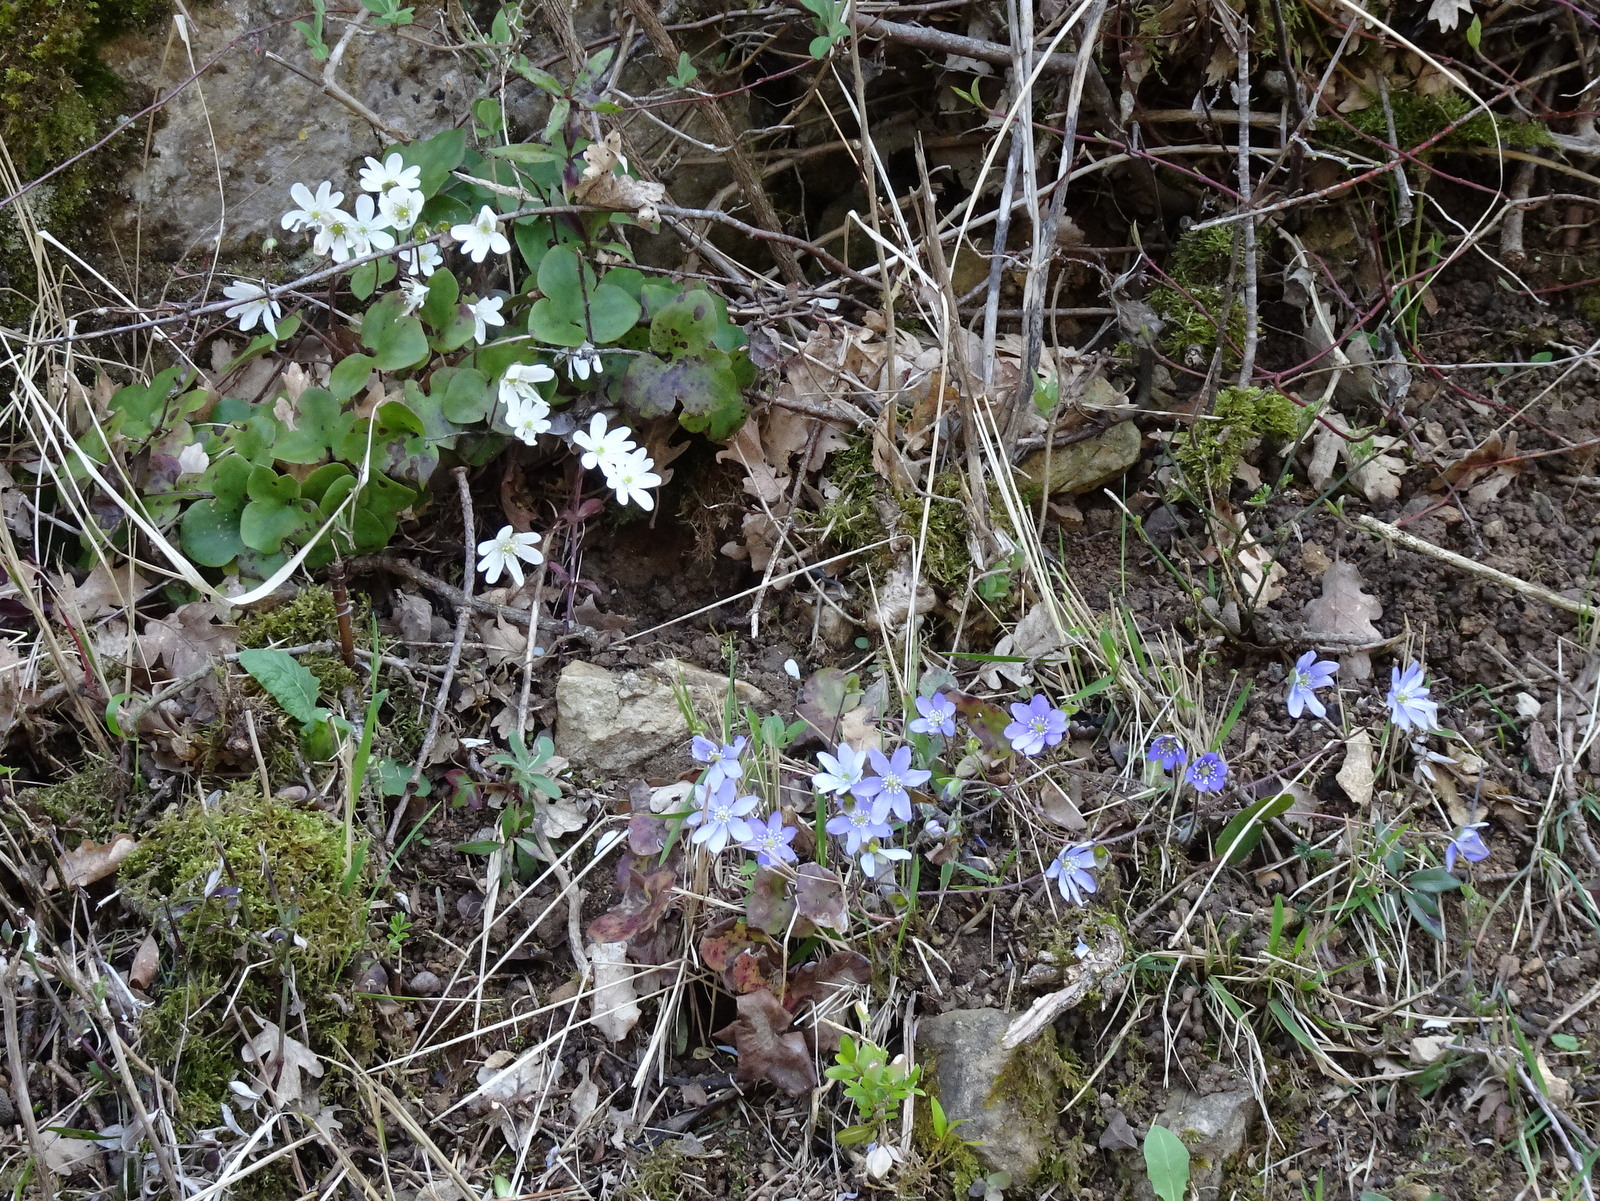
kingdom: Plantae
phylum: Tracheophyta
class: Magnoliopsida
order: Ranunculales
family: Ranunculaceae
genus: Hepatica
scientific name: Hepatica nobilis
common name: Liverleaf
